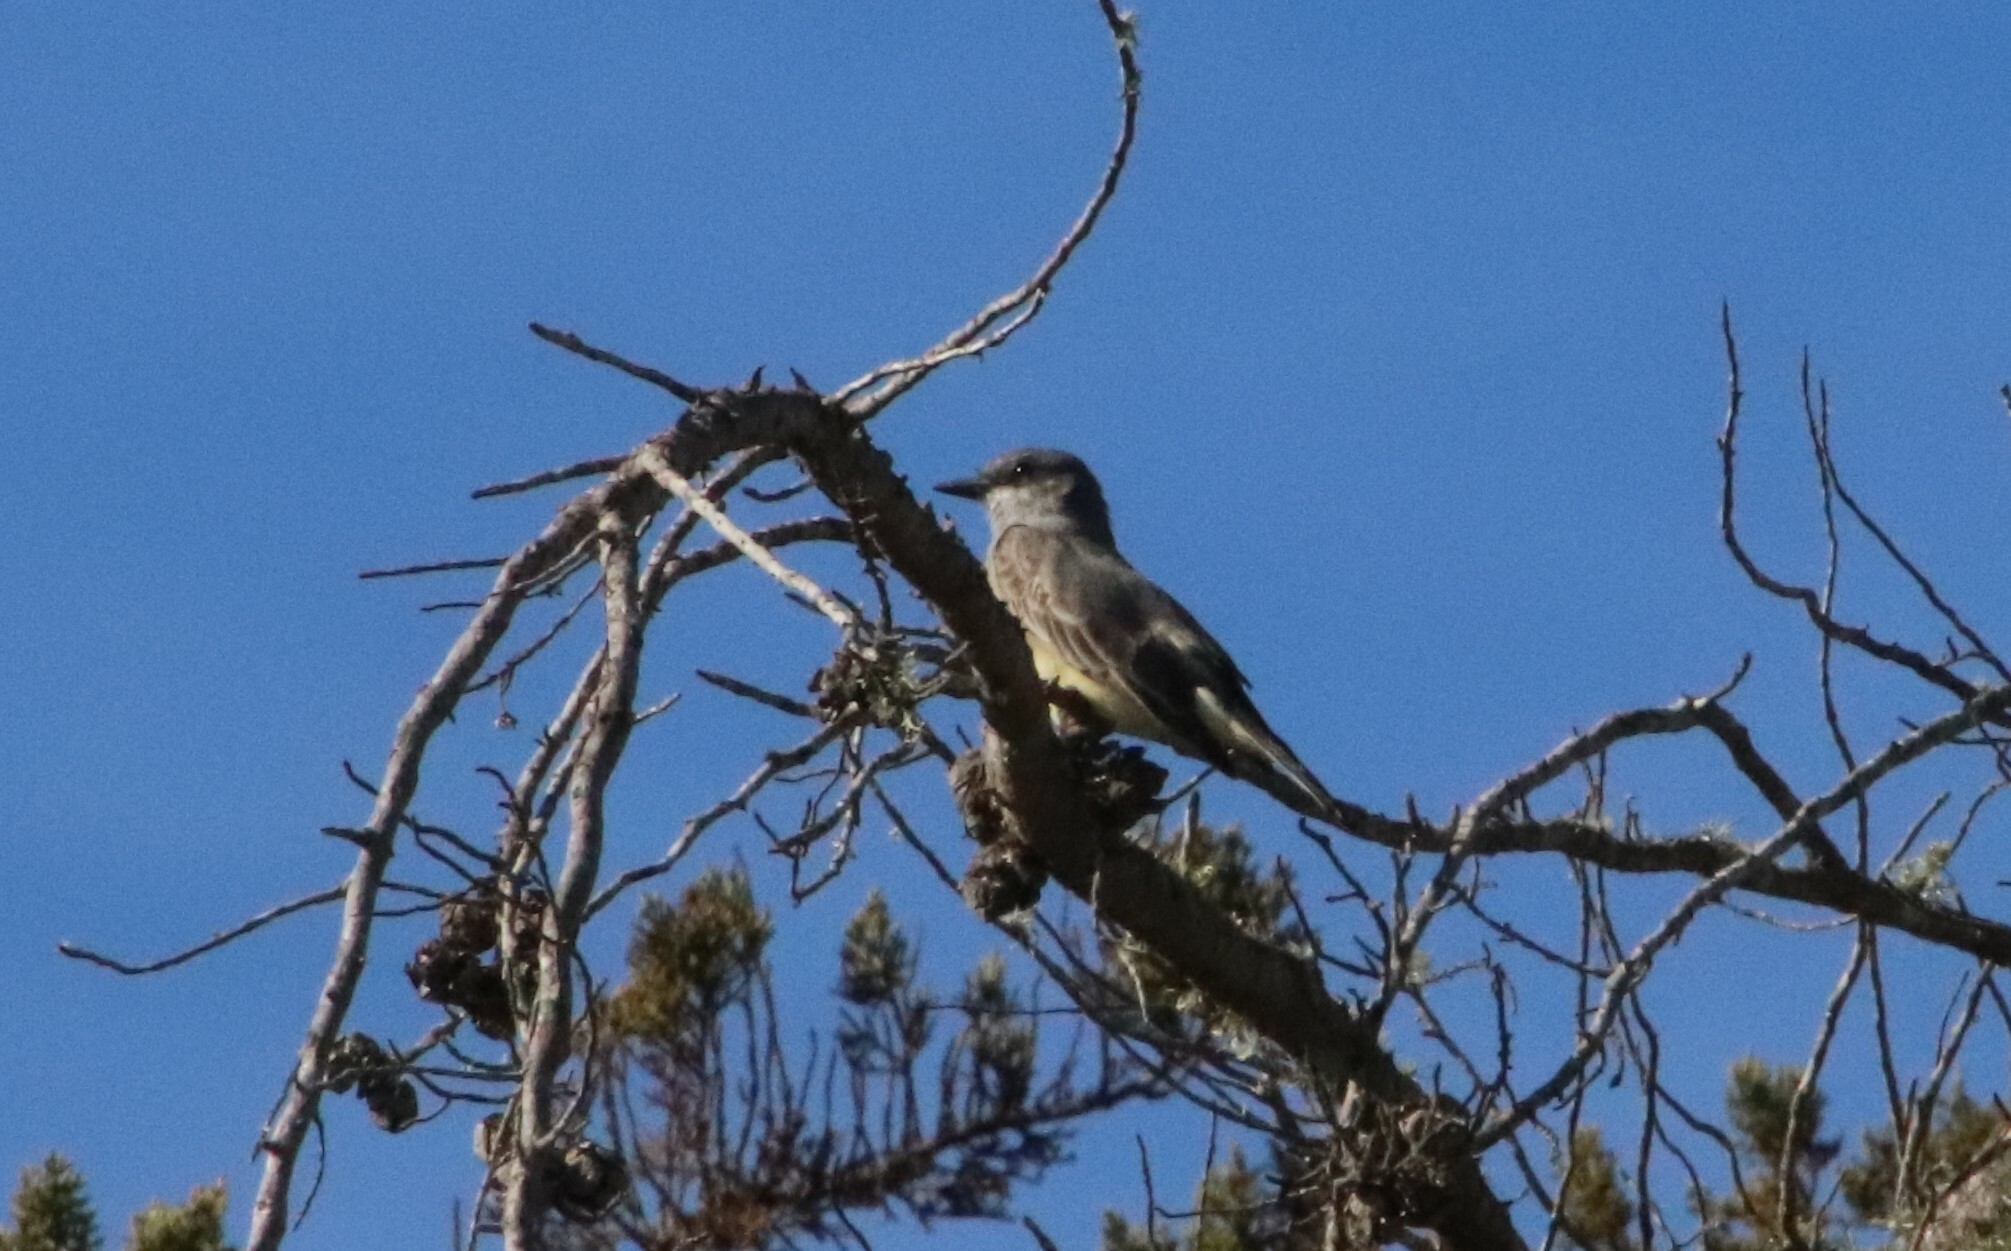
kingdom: Animalia
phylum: Chordata
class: Aves
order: Passeriformes
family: Tyrannidae
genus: Tyrannus
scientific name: Tyrannus vociferans
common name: Cassin's kingbird
